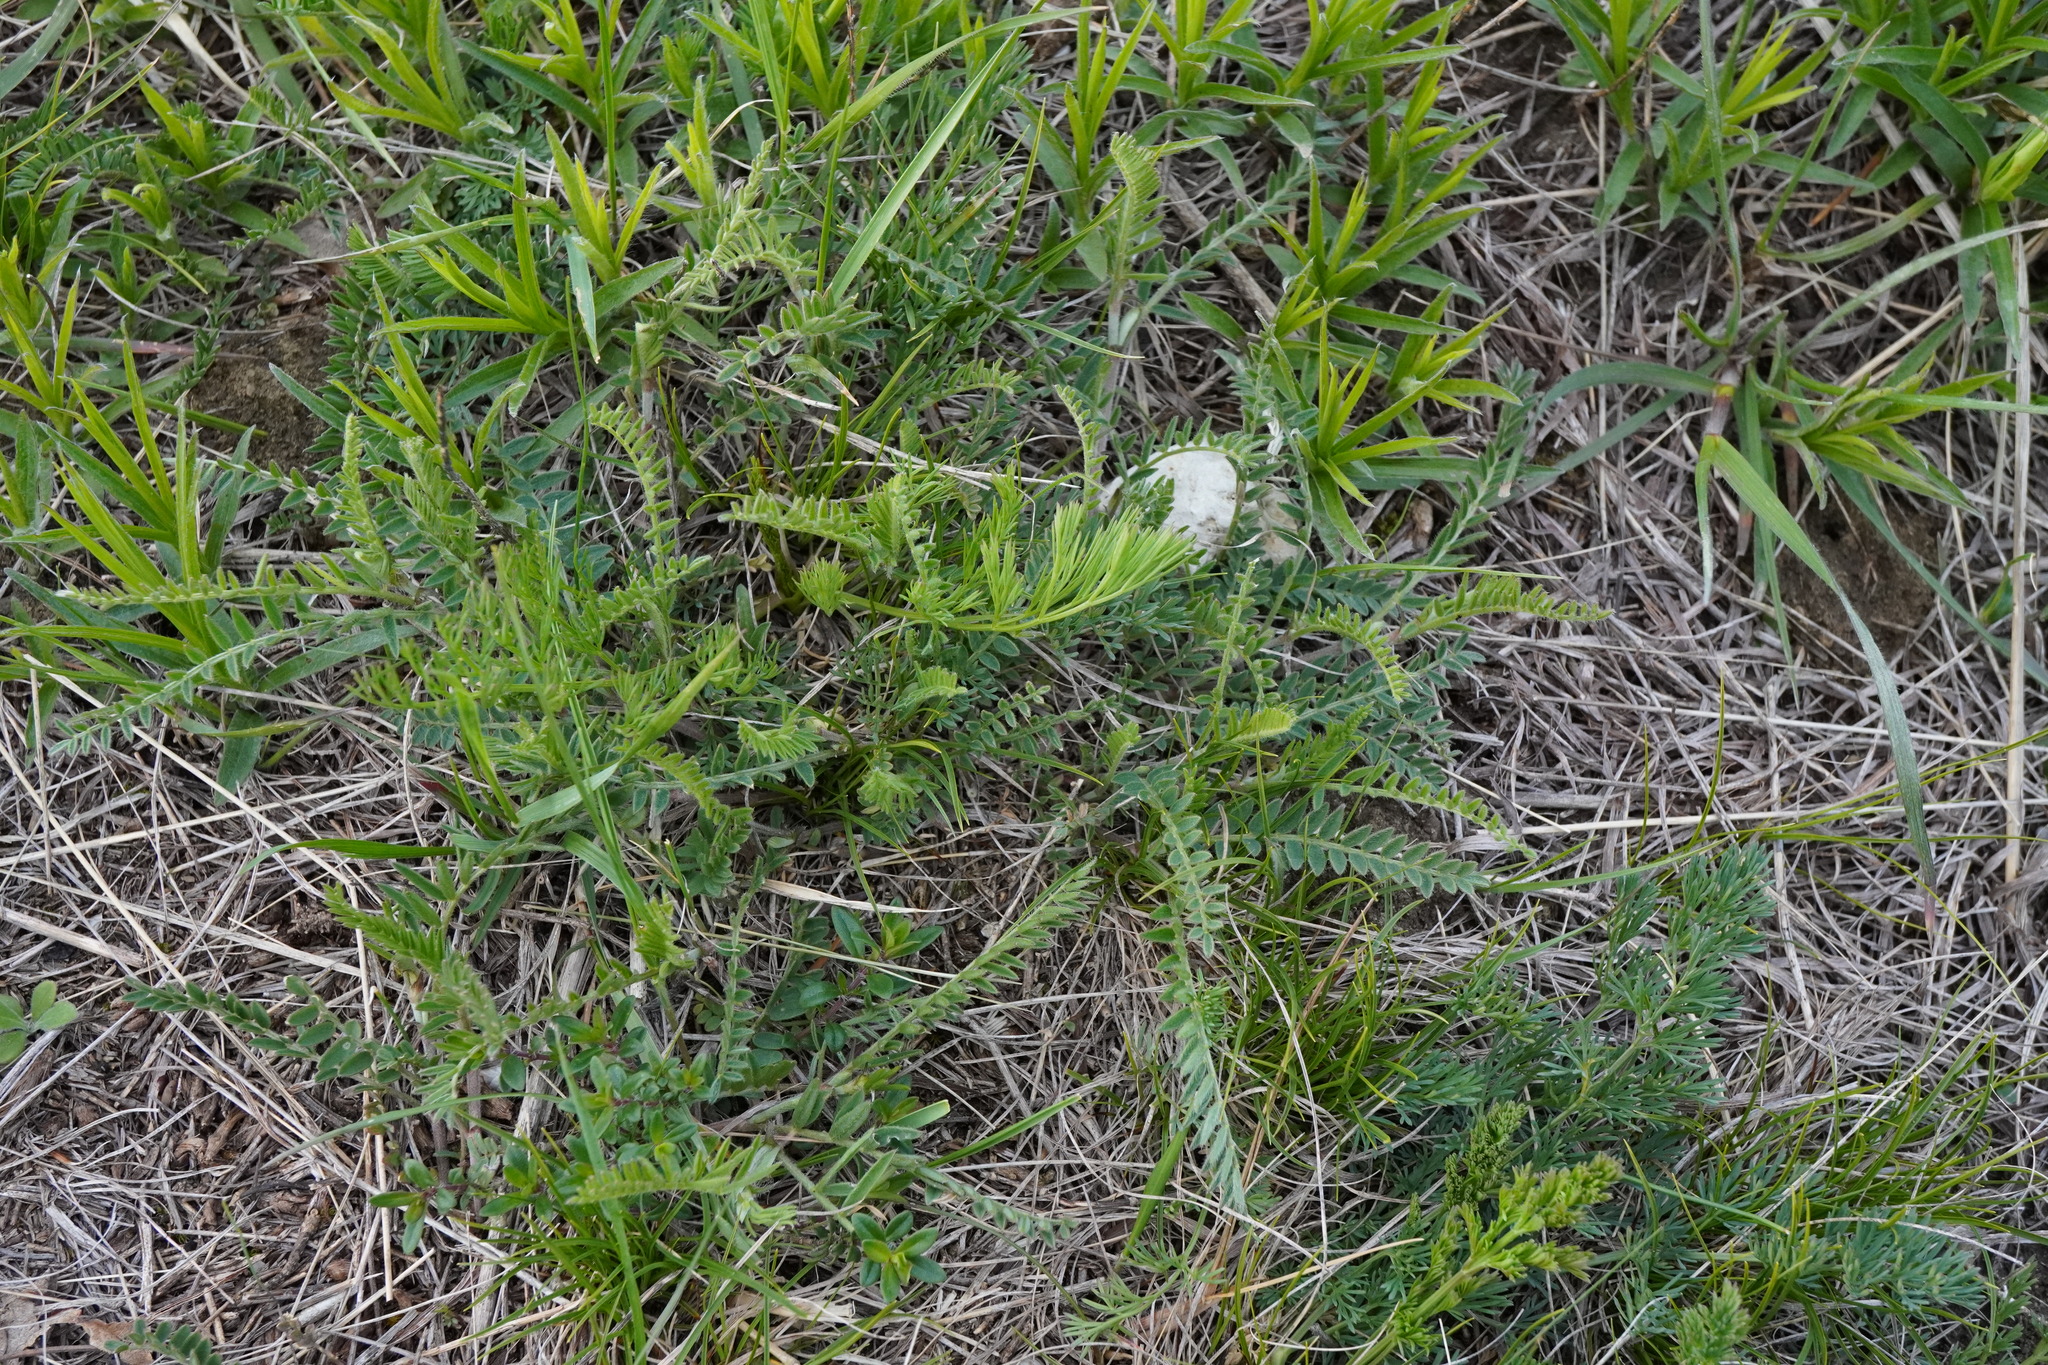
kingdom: Plantae
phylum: Tracheophyta
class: Magnoliopsida
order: Fabales
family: Fabaceae
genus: Astragalus
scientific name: Astragalus onobrychis
